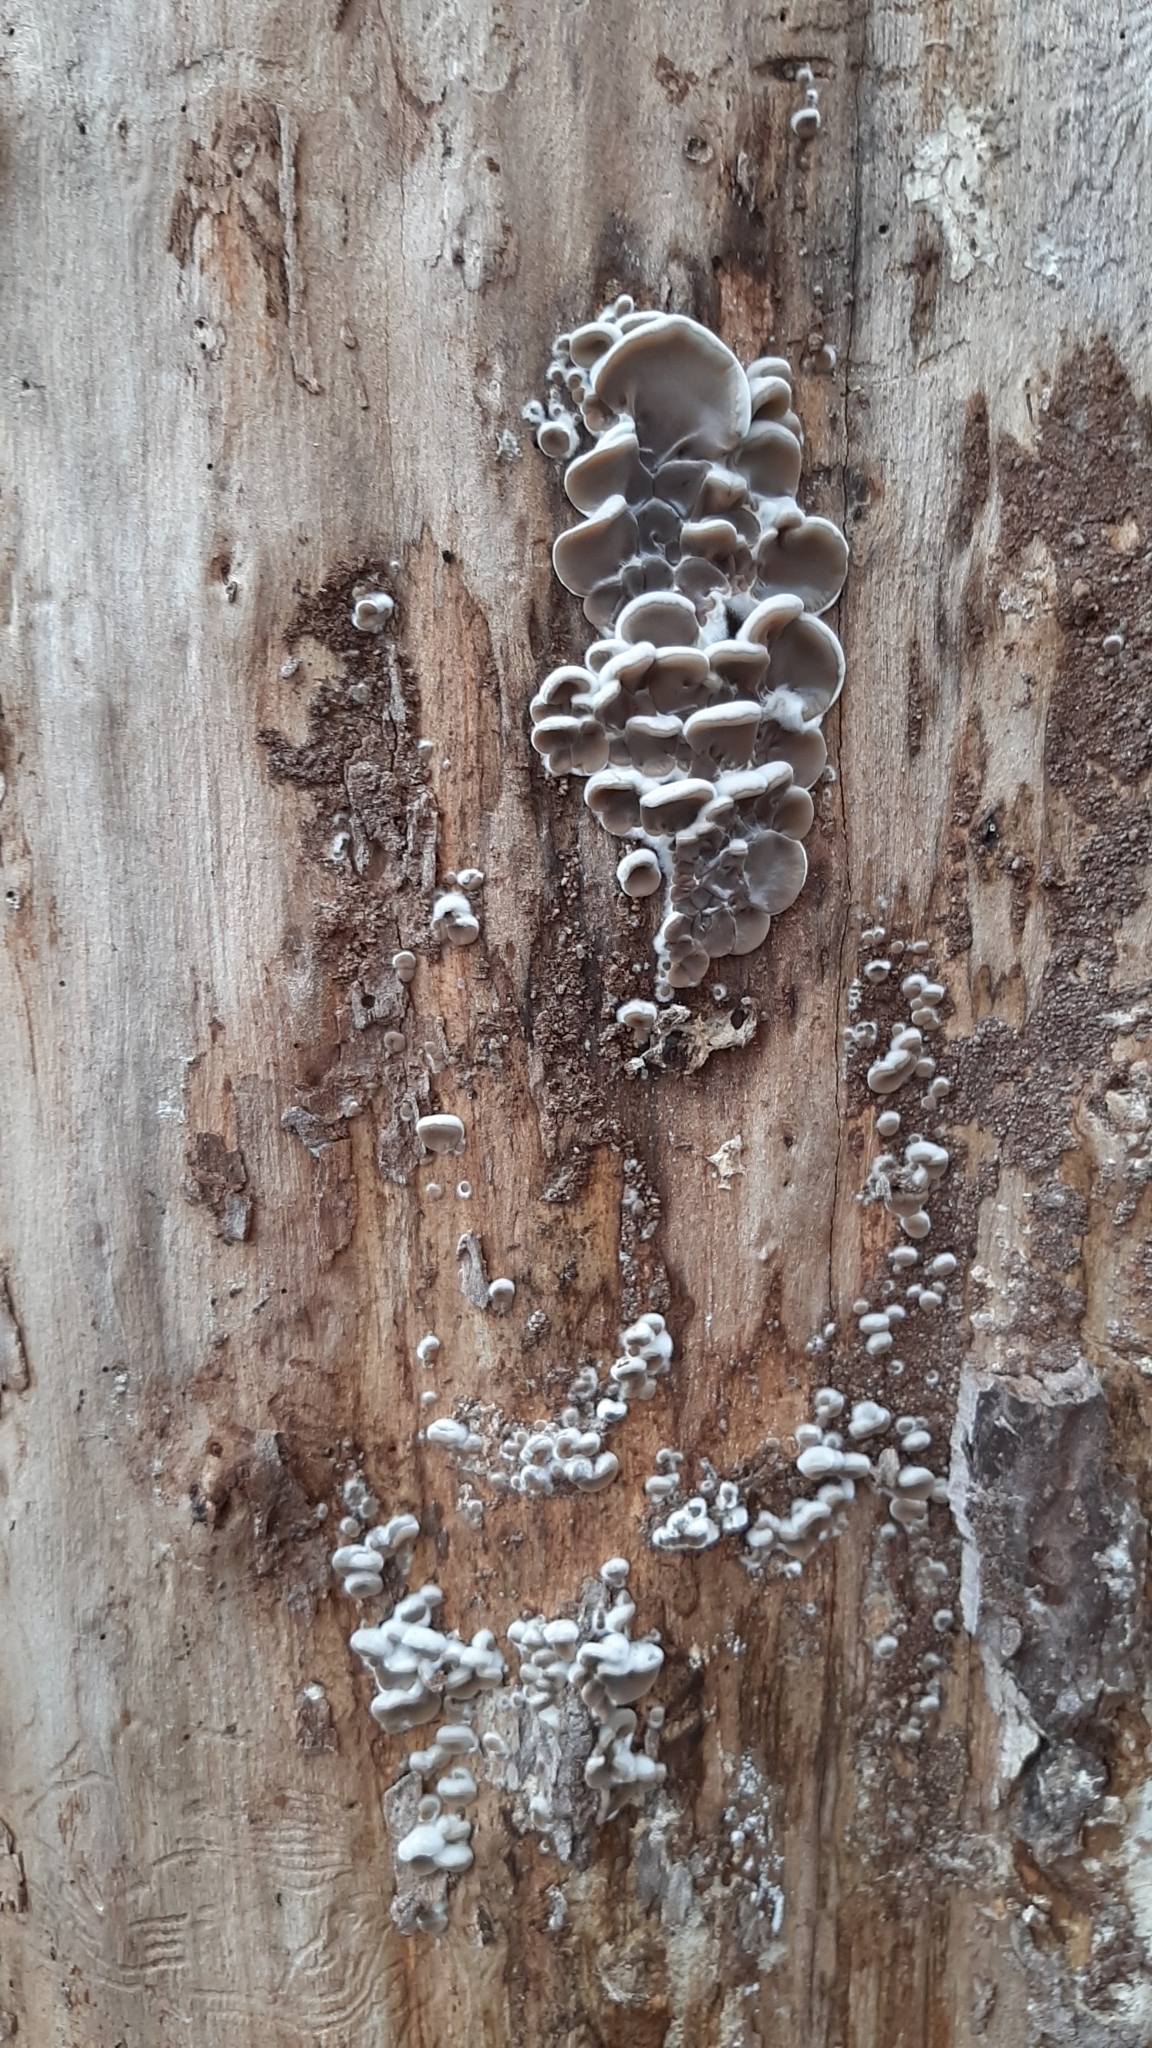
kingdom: Fungi
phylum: Basidiomycota
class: Agaricomycetes
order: Auriculariales
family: Auriculariaceae
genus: Auricularia
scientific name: Auricularia mesenterica
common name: Tripe fungus
